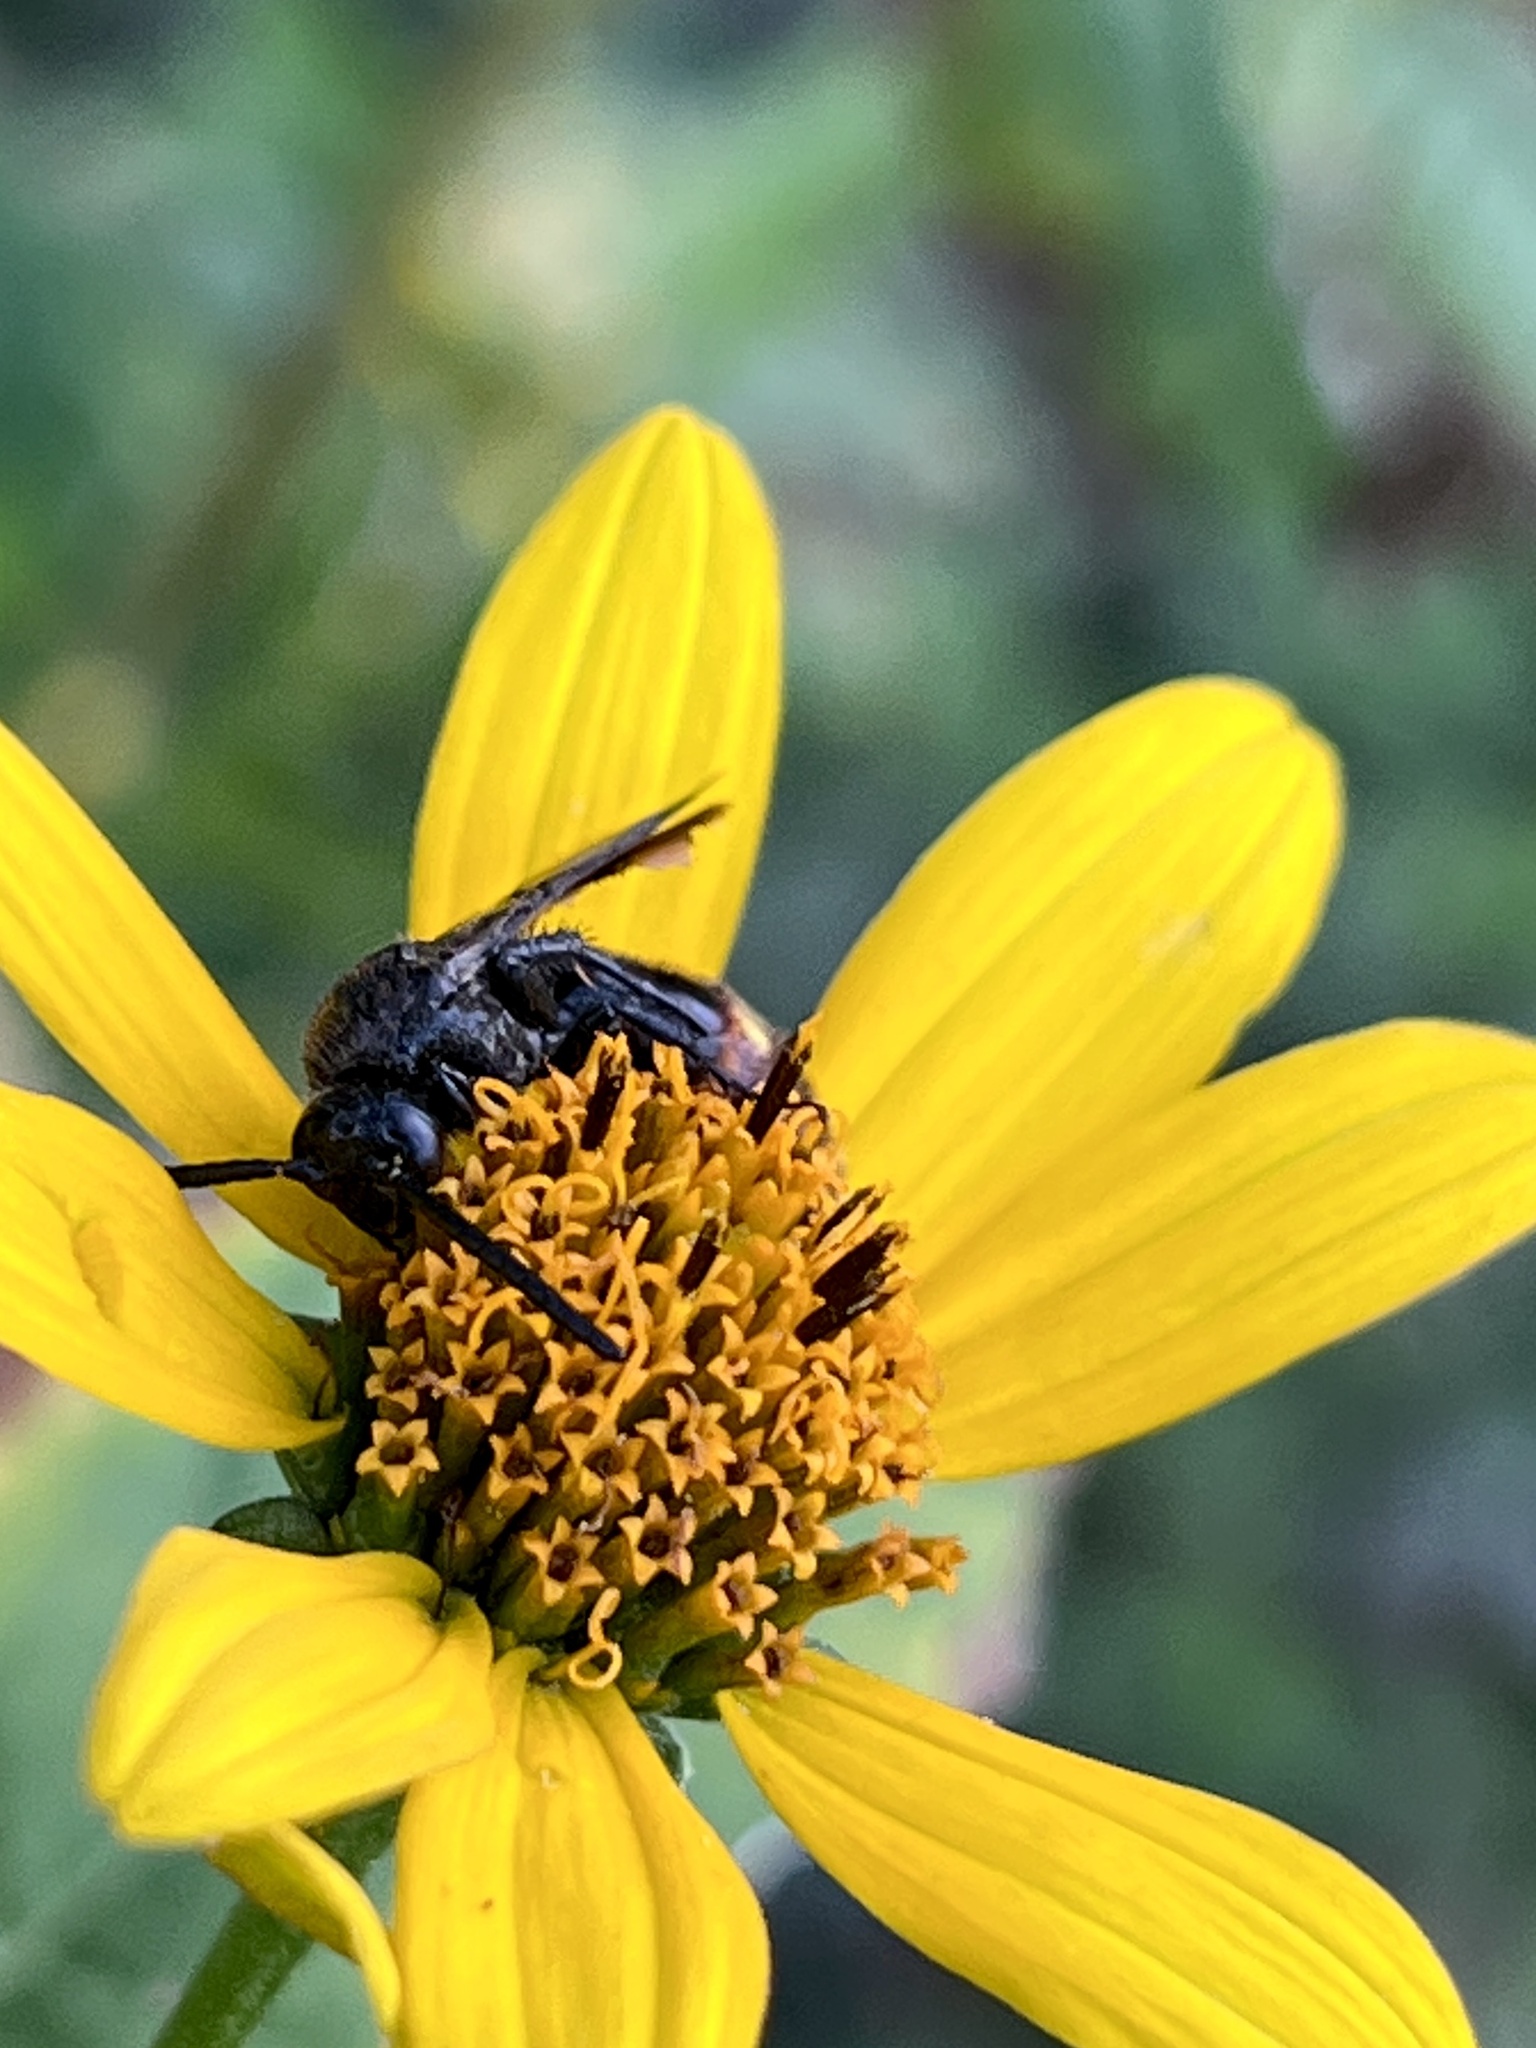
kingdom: Animalia
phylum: Arthropoda
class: Insecta
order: Hymenoptera
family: Scoliidae
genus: Scolia
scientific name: Scolia dubia
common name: Blue-winged scoliid wasp
